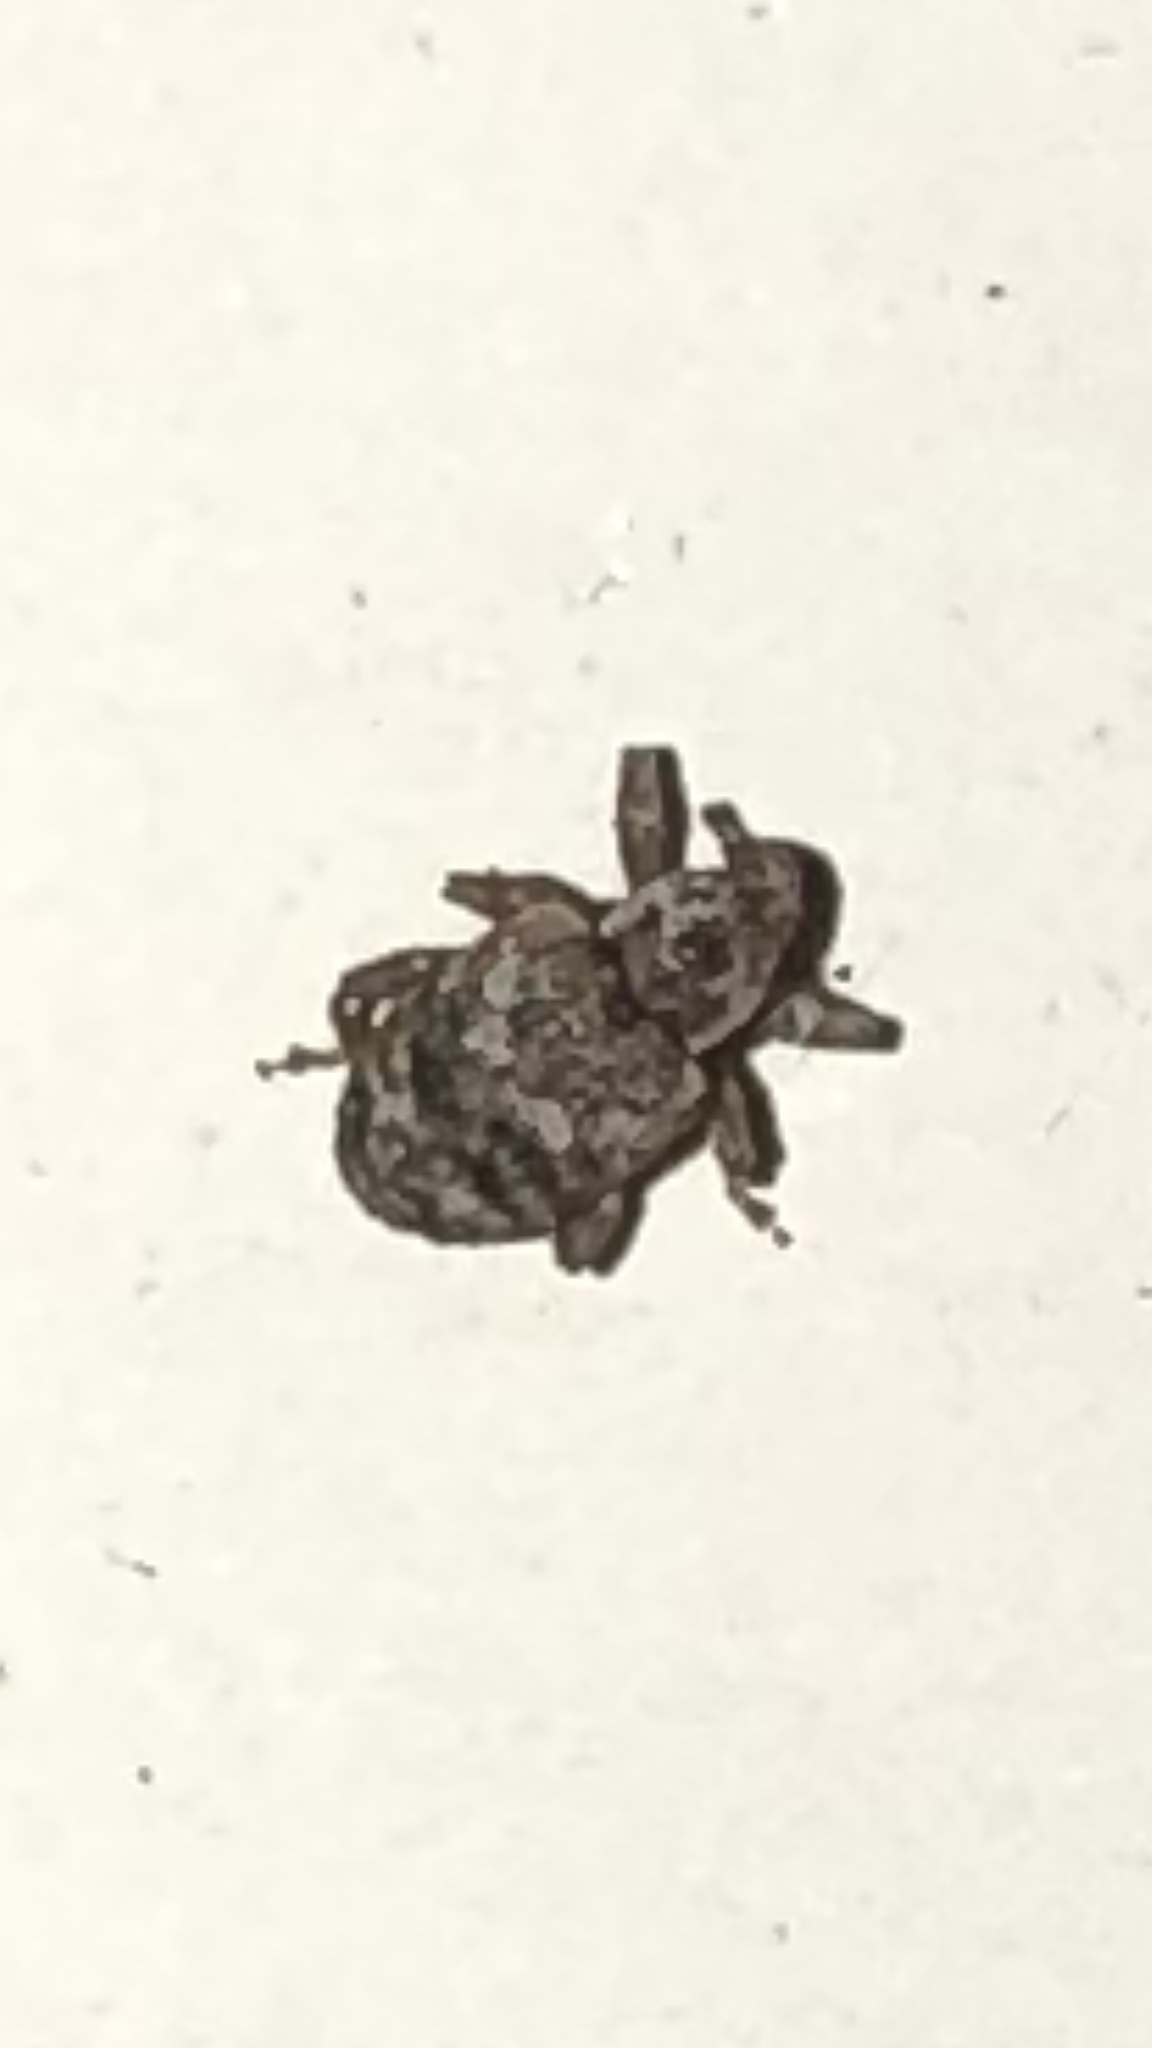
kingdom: Animalia
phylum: Arthropoda
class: Insecta
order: Coleoptera
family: Curculionidae
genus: Conotrachelus
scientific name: Conotrachelus recessus
